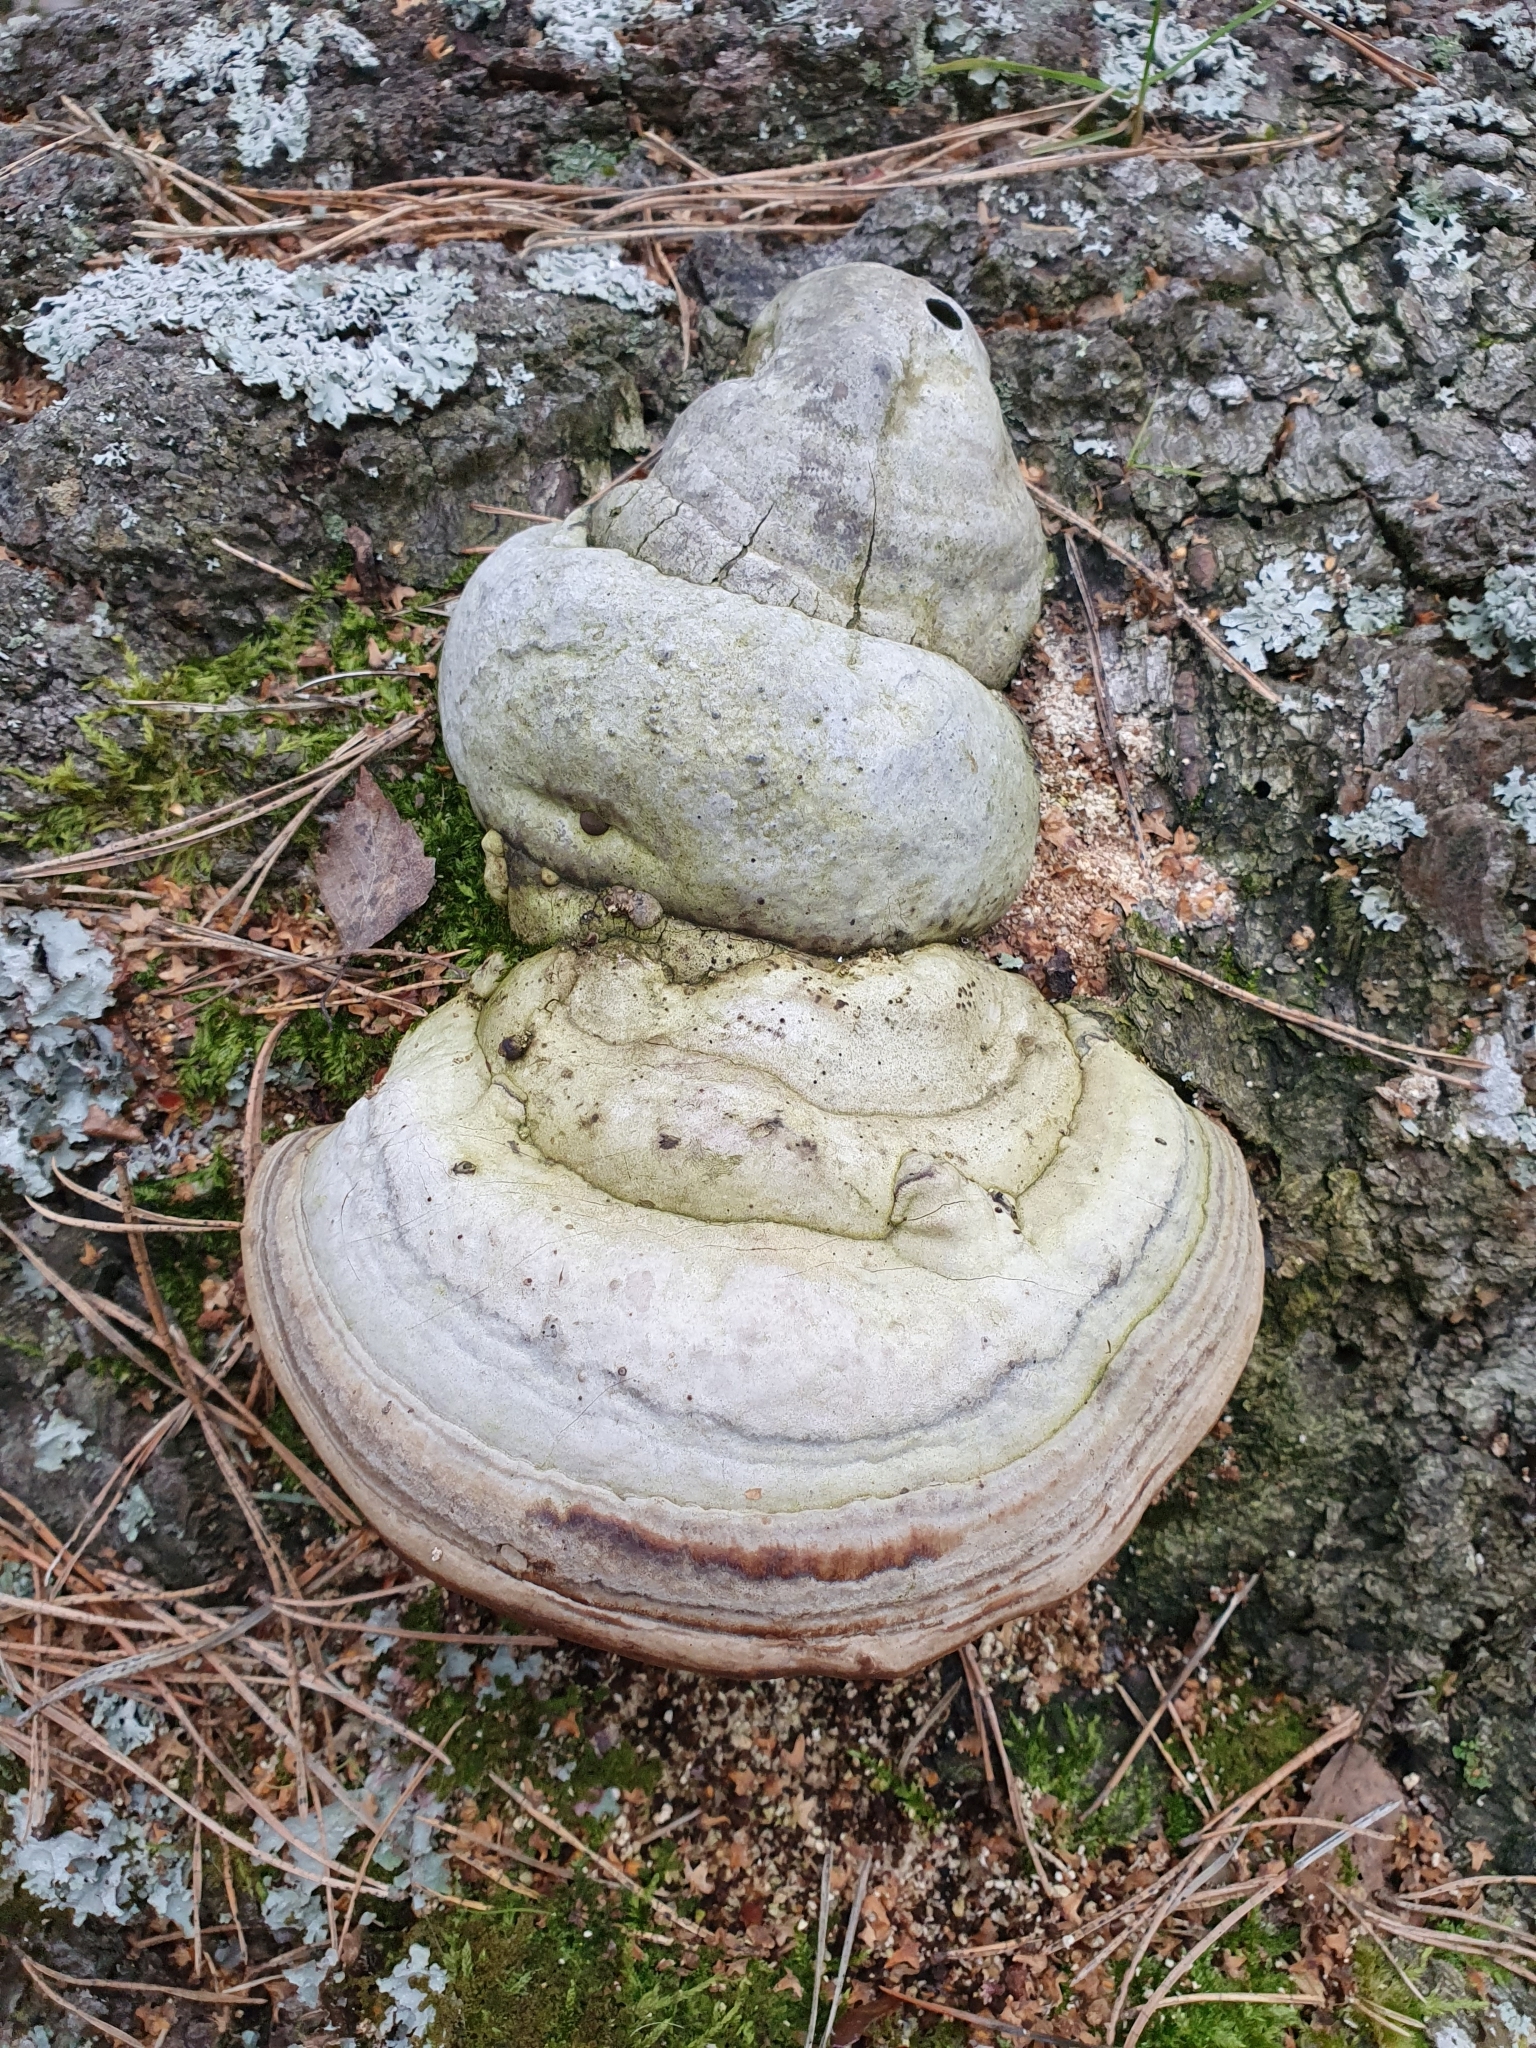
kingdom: Fungi
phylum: Basidiomycota
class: Agaricomycetes
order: Polyporales
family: Polyporaceae
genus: Fomes
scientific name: Fomes fomentarius
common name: Hoof fungus
